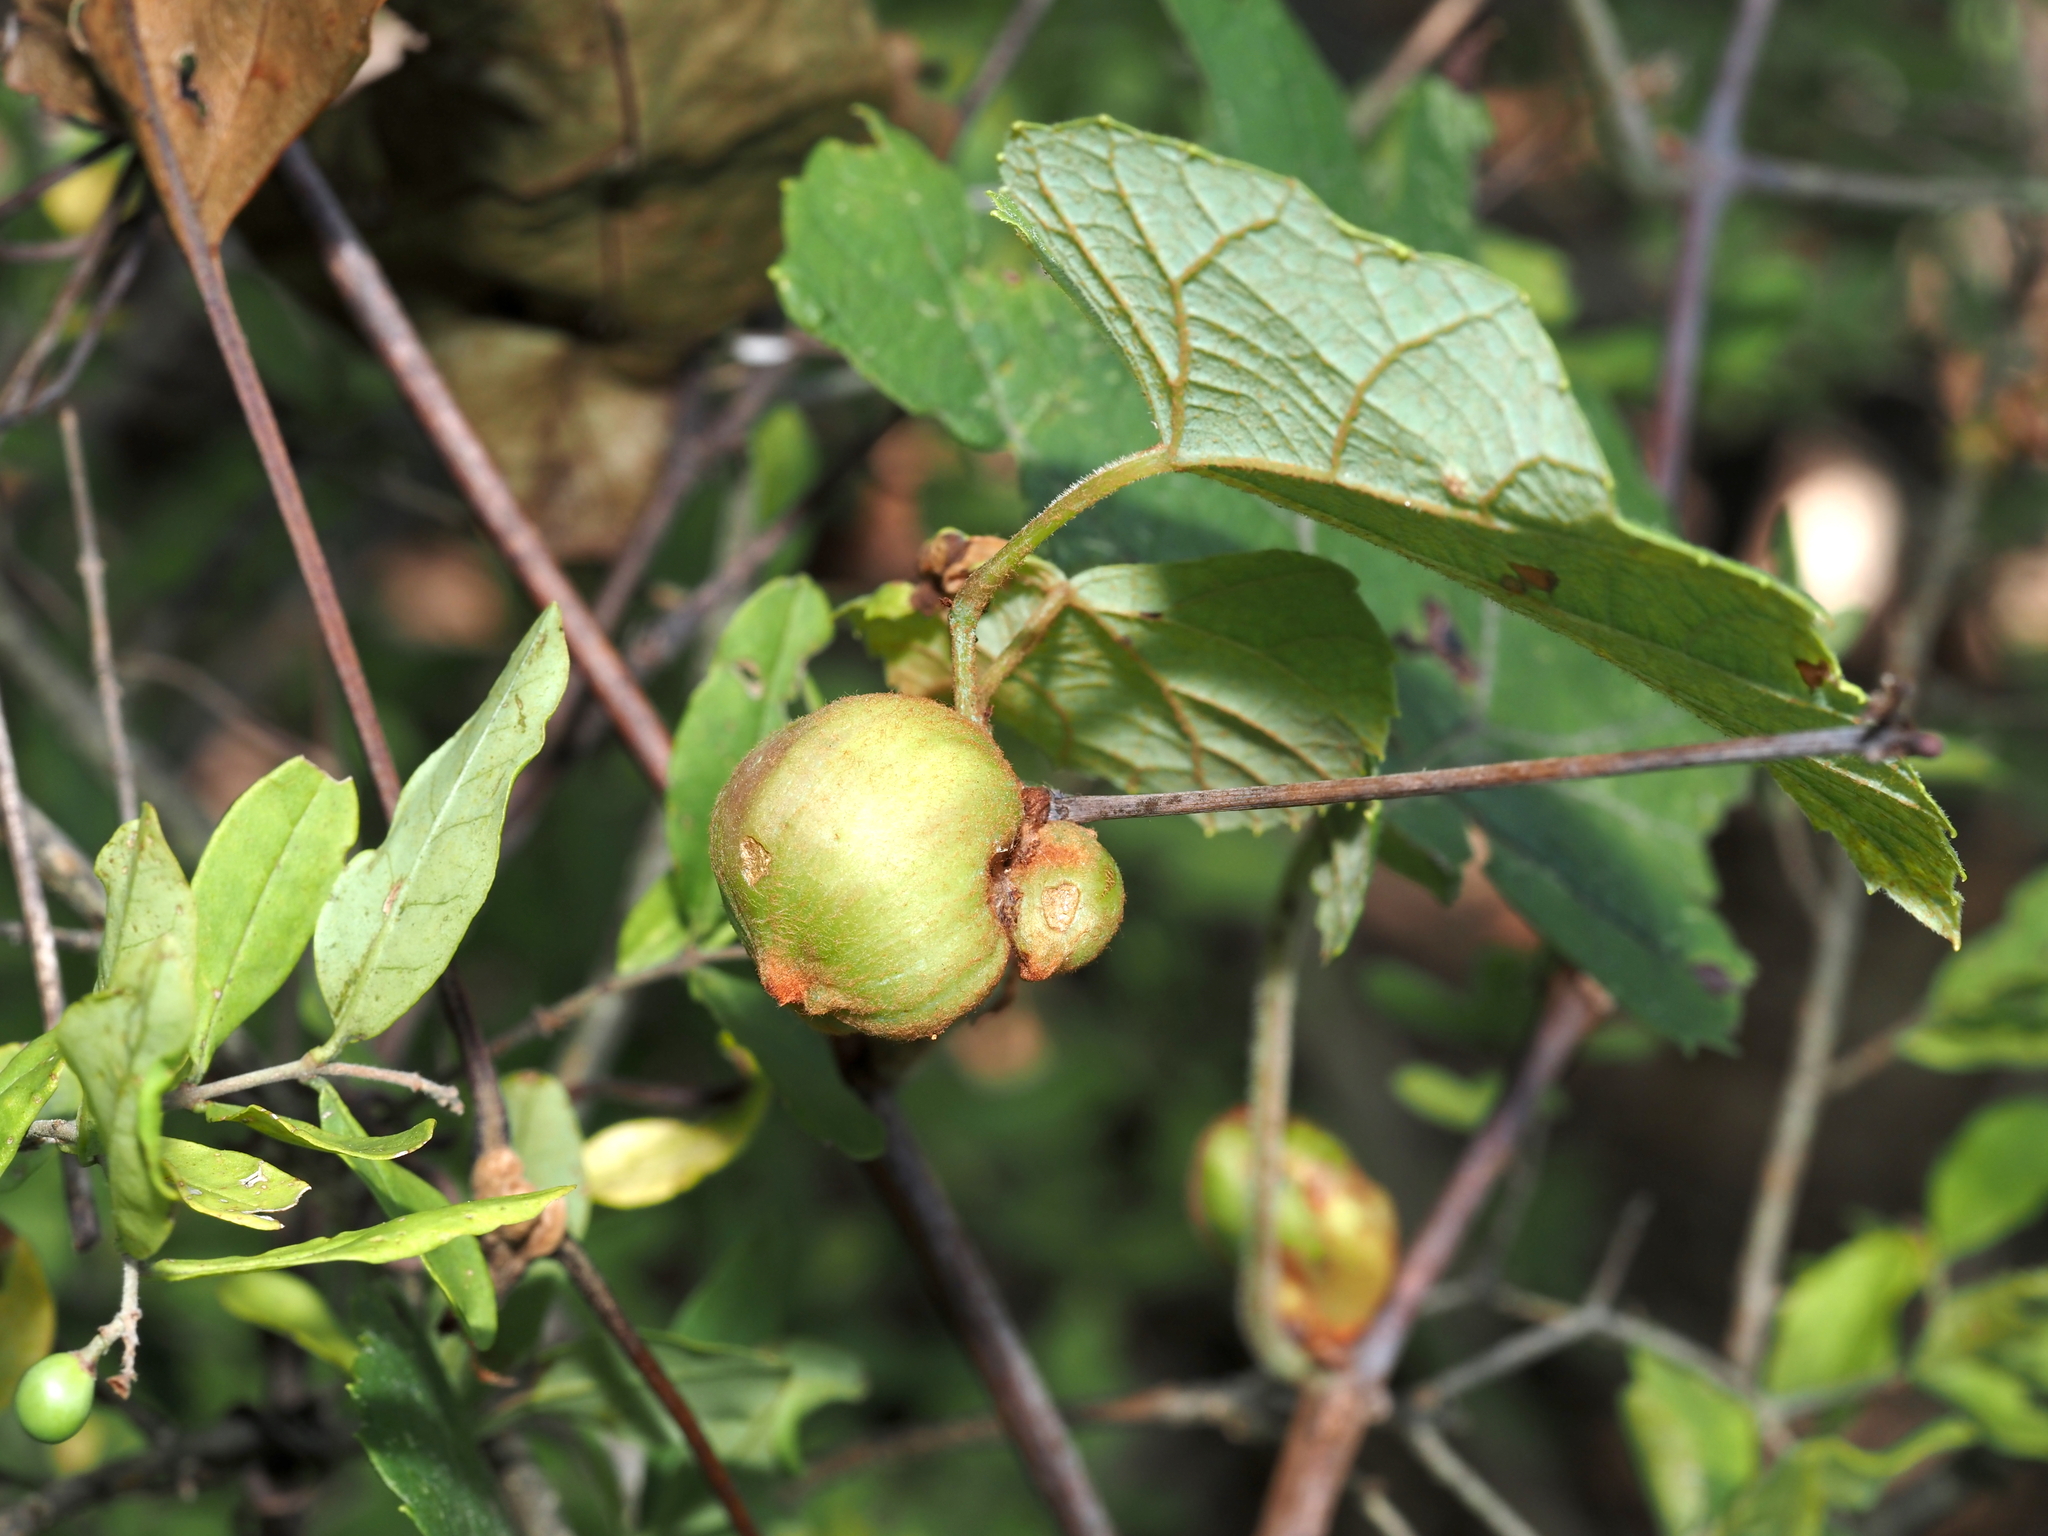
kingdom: Animalia
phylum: Arthropoda
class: Insecta
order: Diptera
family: Cecidomyiidae
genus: Ampelomyia
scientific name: Ampelomyia vitispomum
